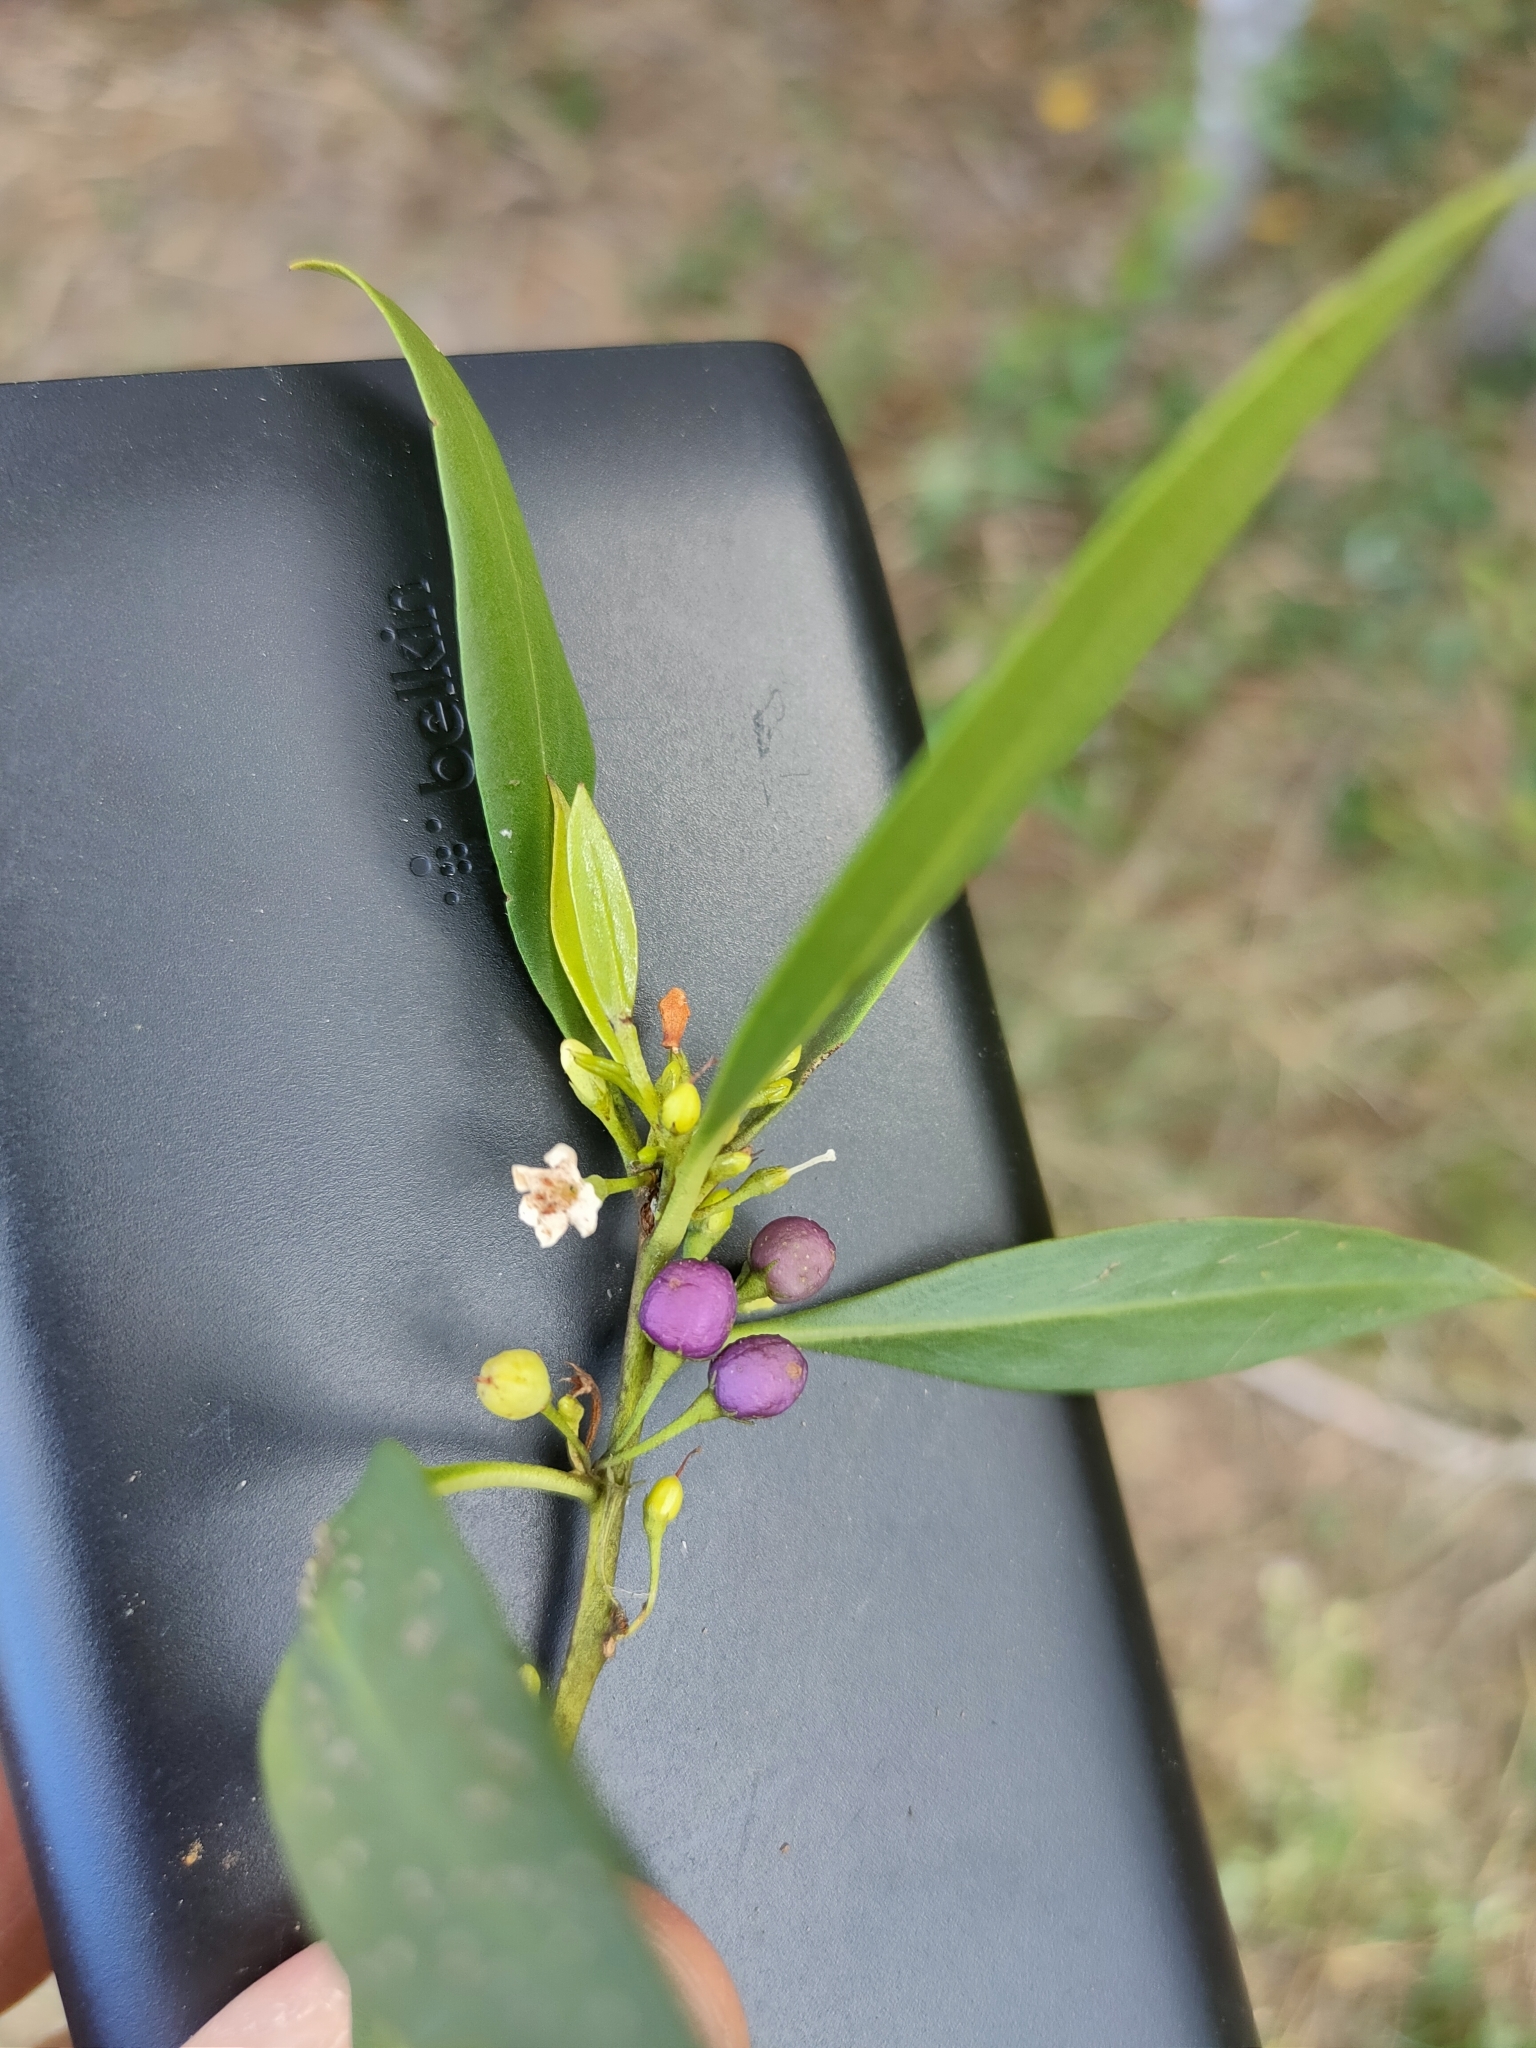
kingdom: Plantae
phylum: Tracheophyta
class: Magnoliopsida
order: Lamiales
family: Scrophulariaceae
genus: Myoporum
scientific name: Myoporum acuminatum
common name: Pointed boobialla
